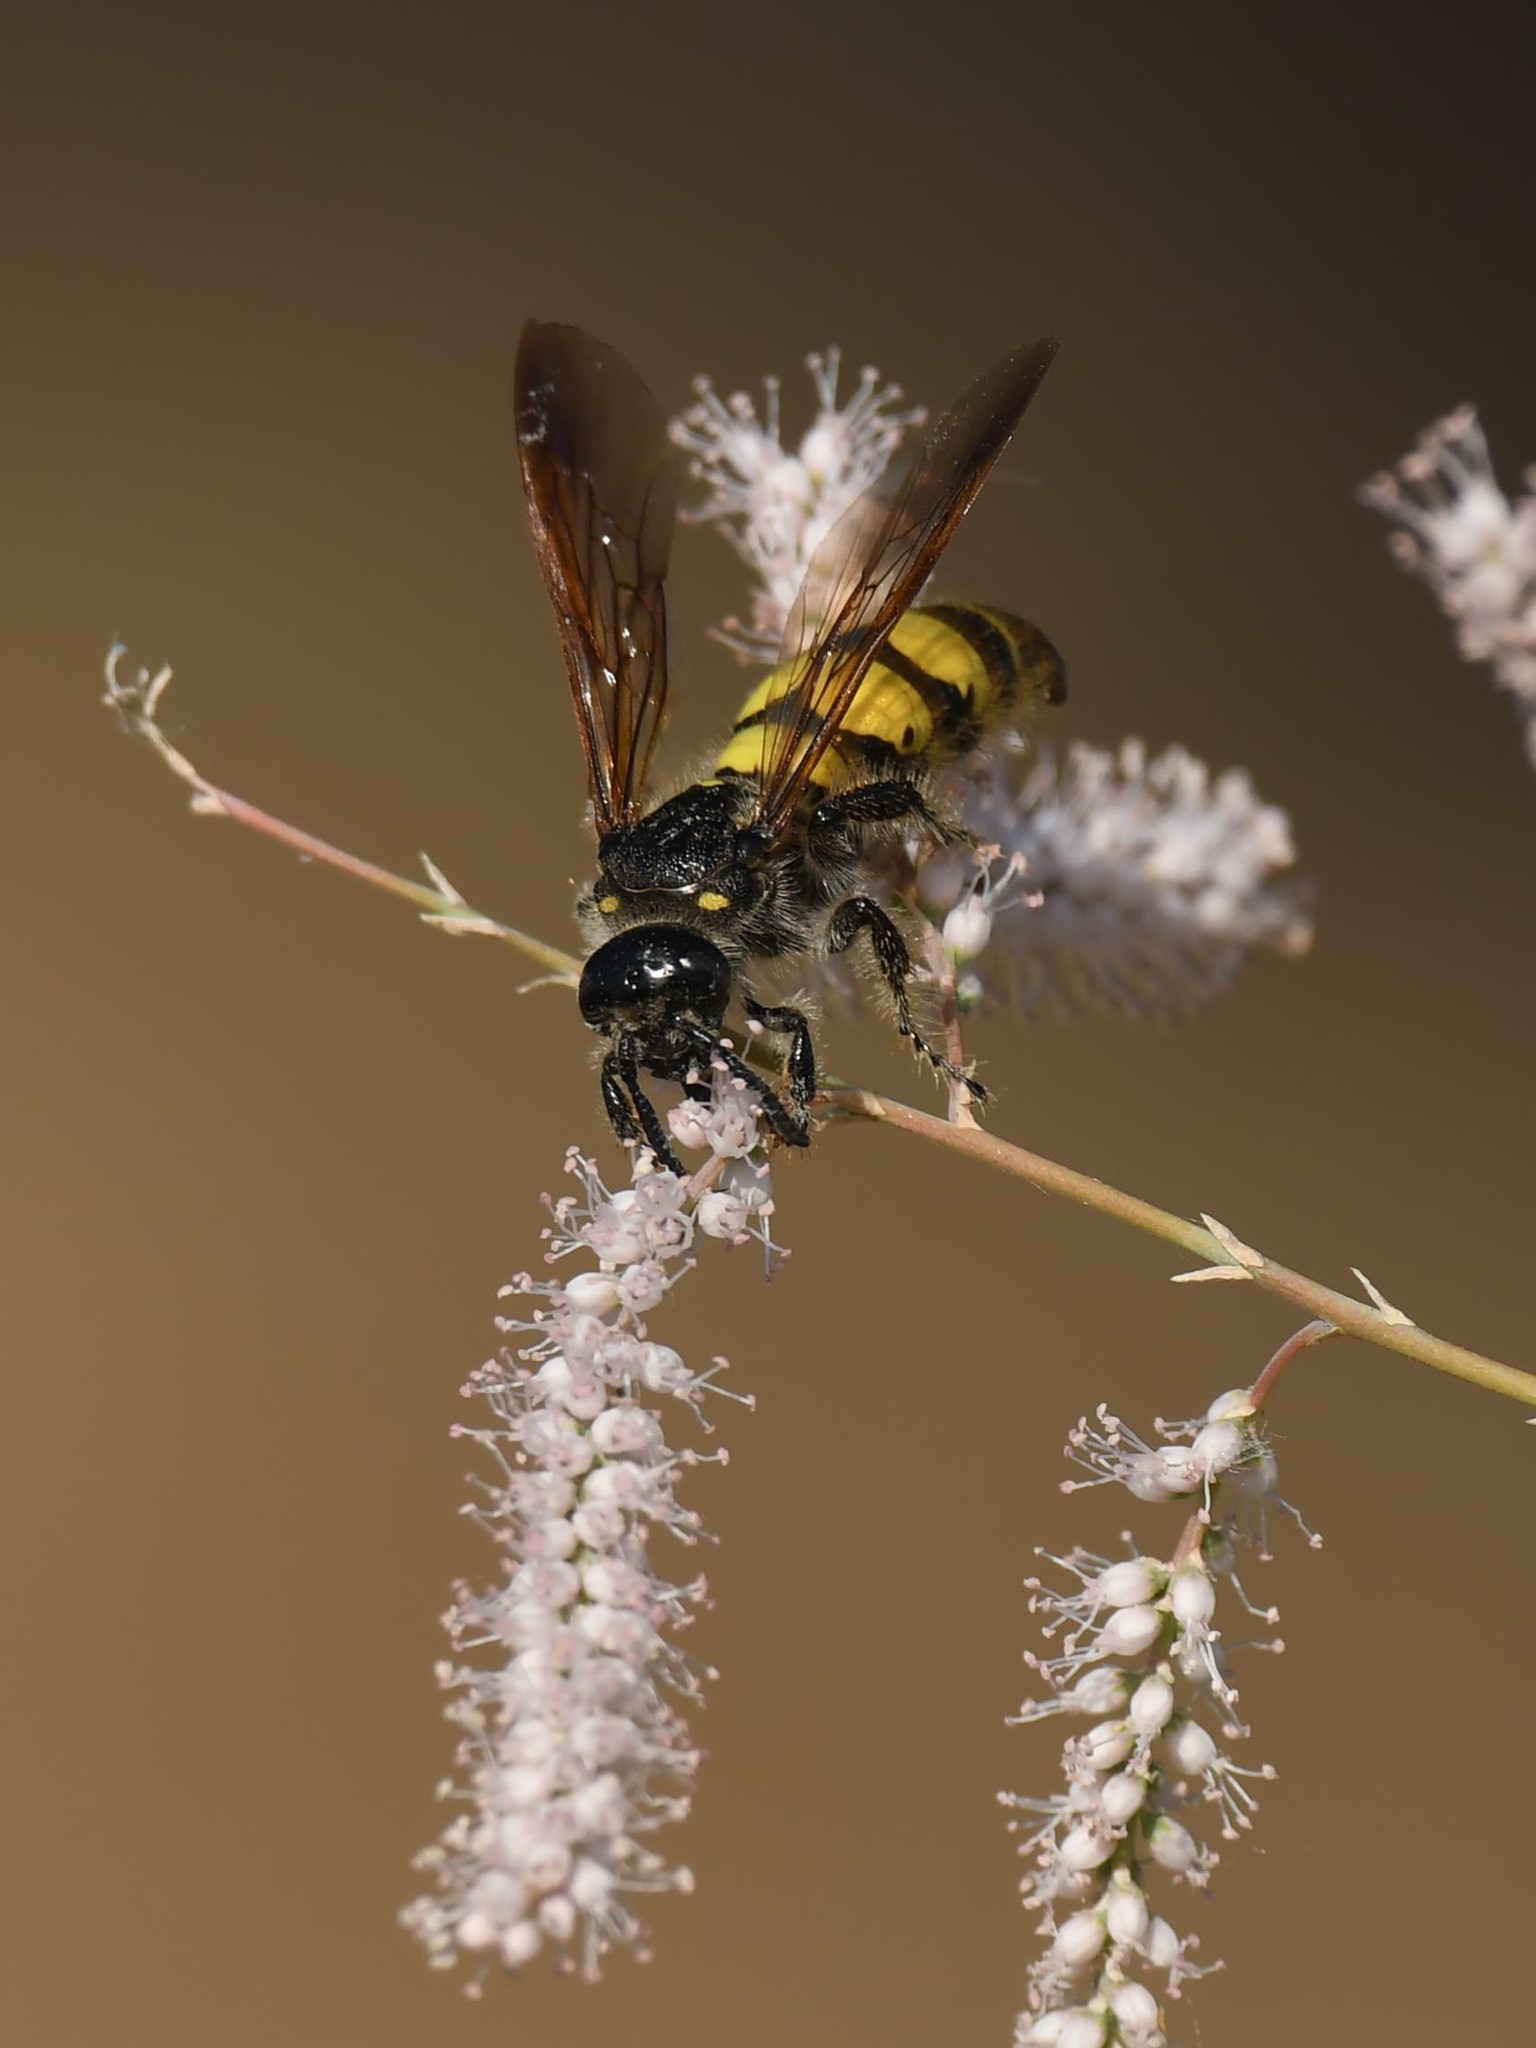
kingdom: Animalia
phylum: Arthropoda
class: Insecta
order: Hymenoptera
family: Scoliidae
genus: Dielis
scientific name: Dielis
